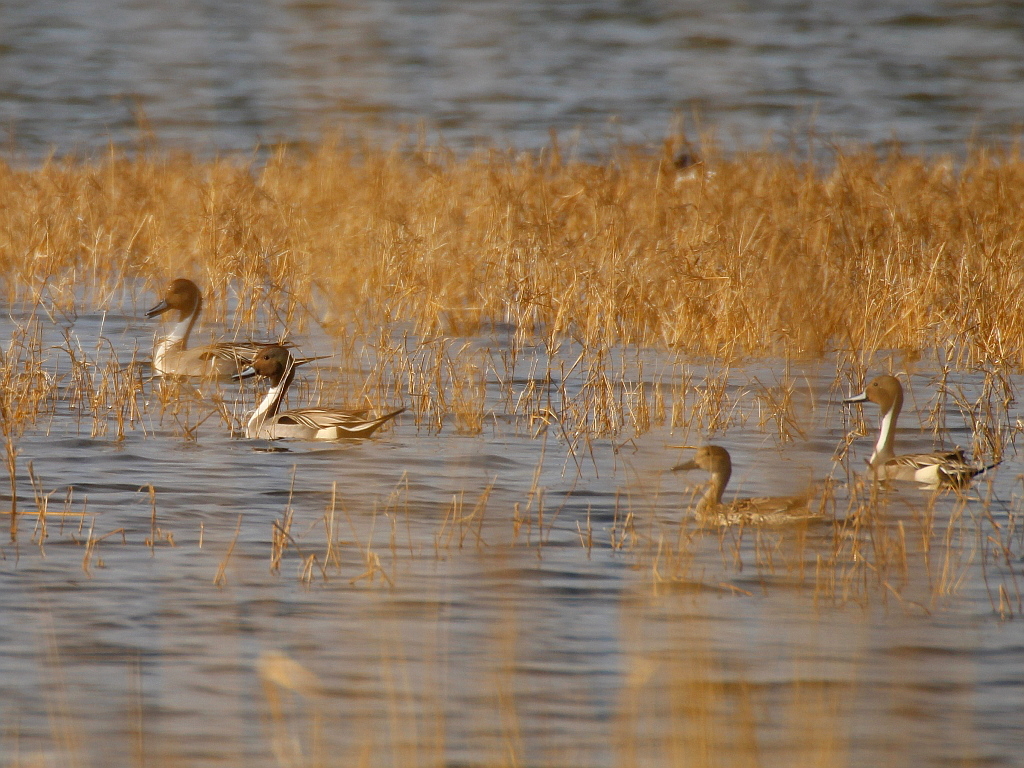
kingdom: Animalia
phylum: Chordata
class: Aves
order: Anseriformes
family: Anatidae
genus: Anas
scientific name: Anas acuta
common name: Northern pintail
